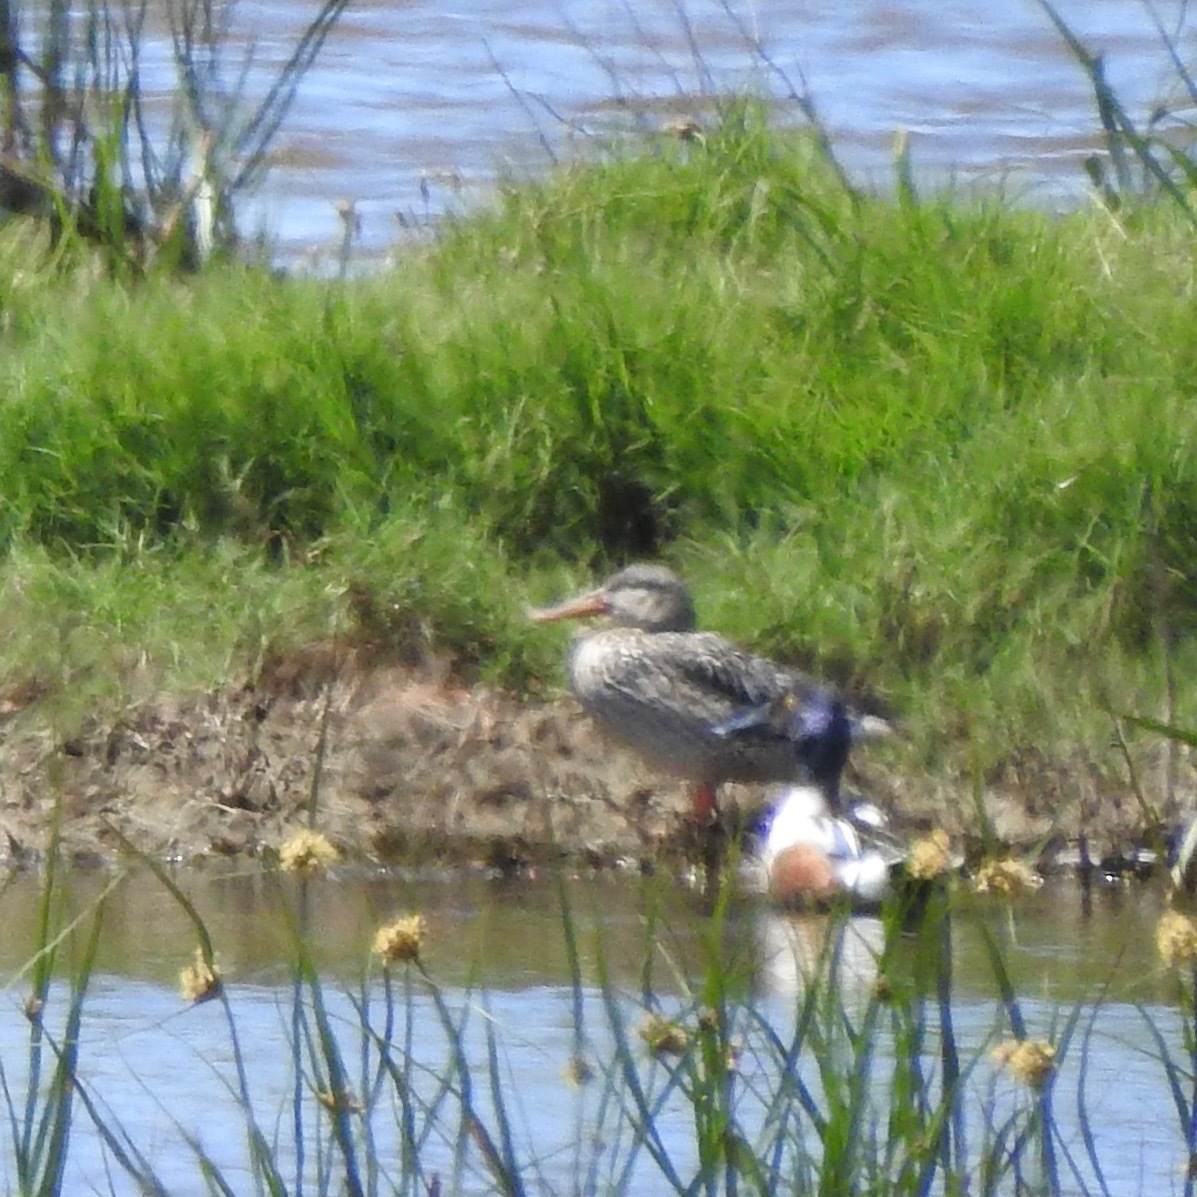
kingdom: Animalia
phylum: Chordata
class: Aves
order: Anseriformes
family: Anatidae
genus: Spatula
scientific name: Spatula clypeata
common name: Northern shoveler
